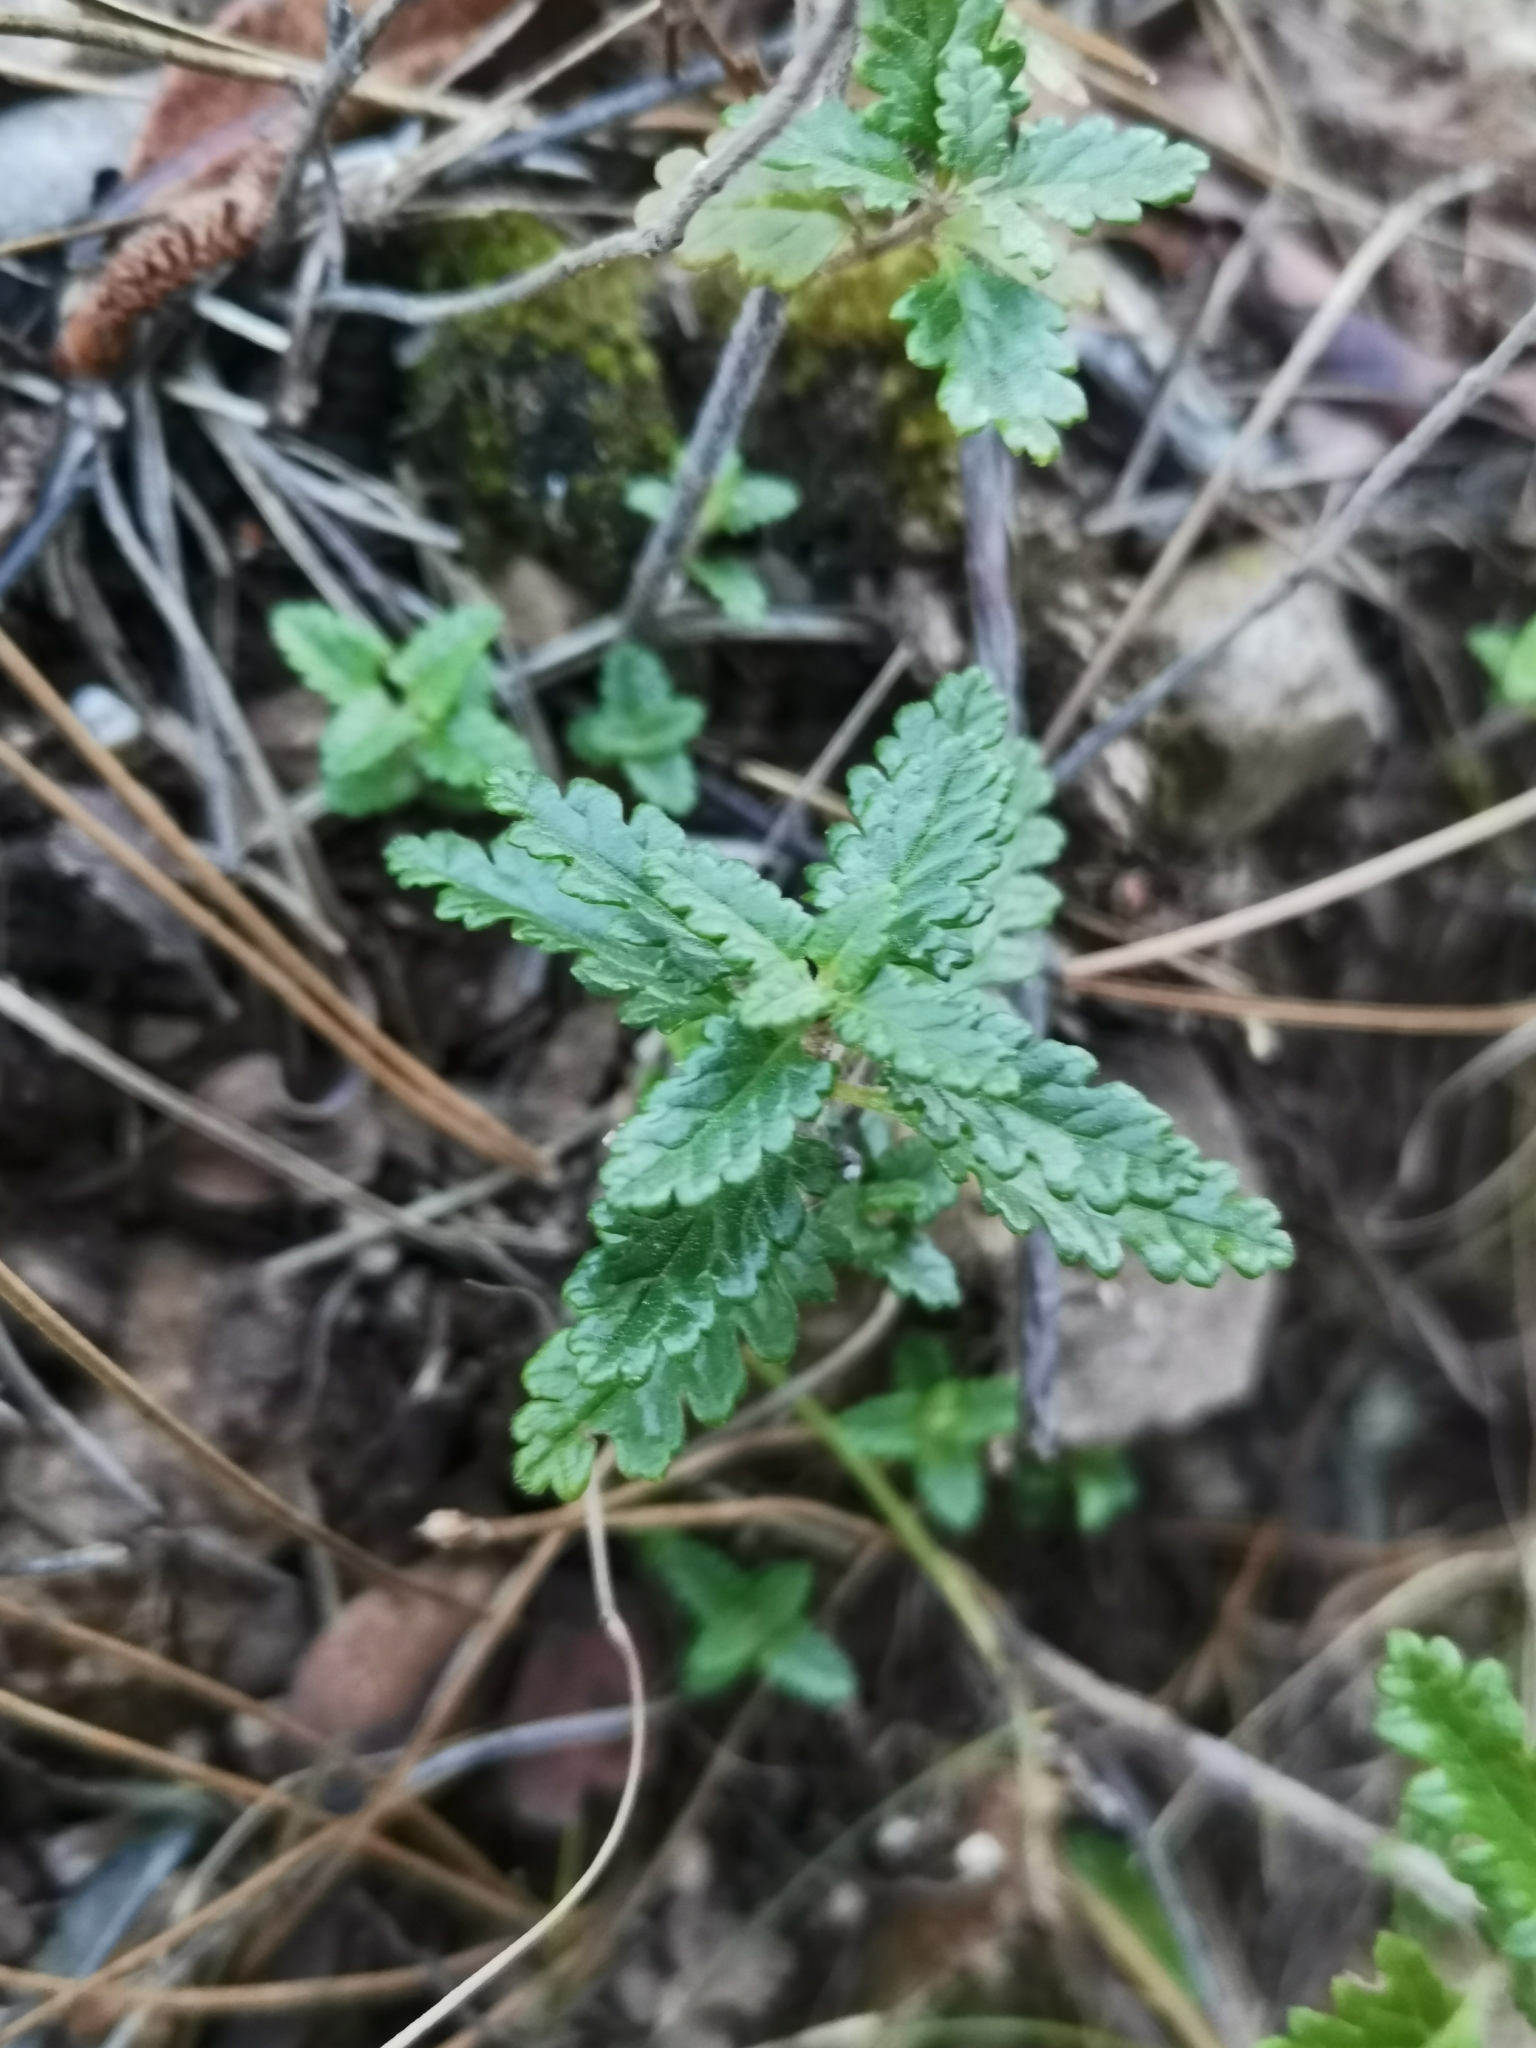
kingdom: Plantae
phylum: Tracheophyta
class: Magnoliopsida
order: Lamiales
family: Lamiaceae
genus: Teucrium
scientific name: Teucrium chamaedrys
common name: Wall germander
